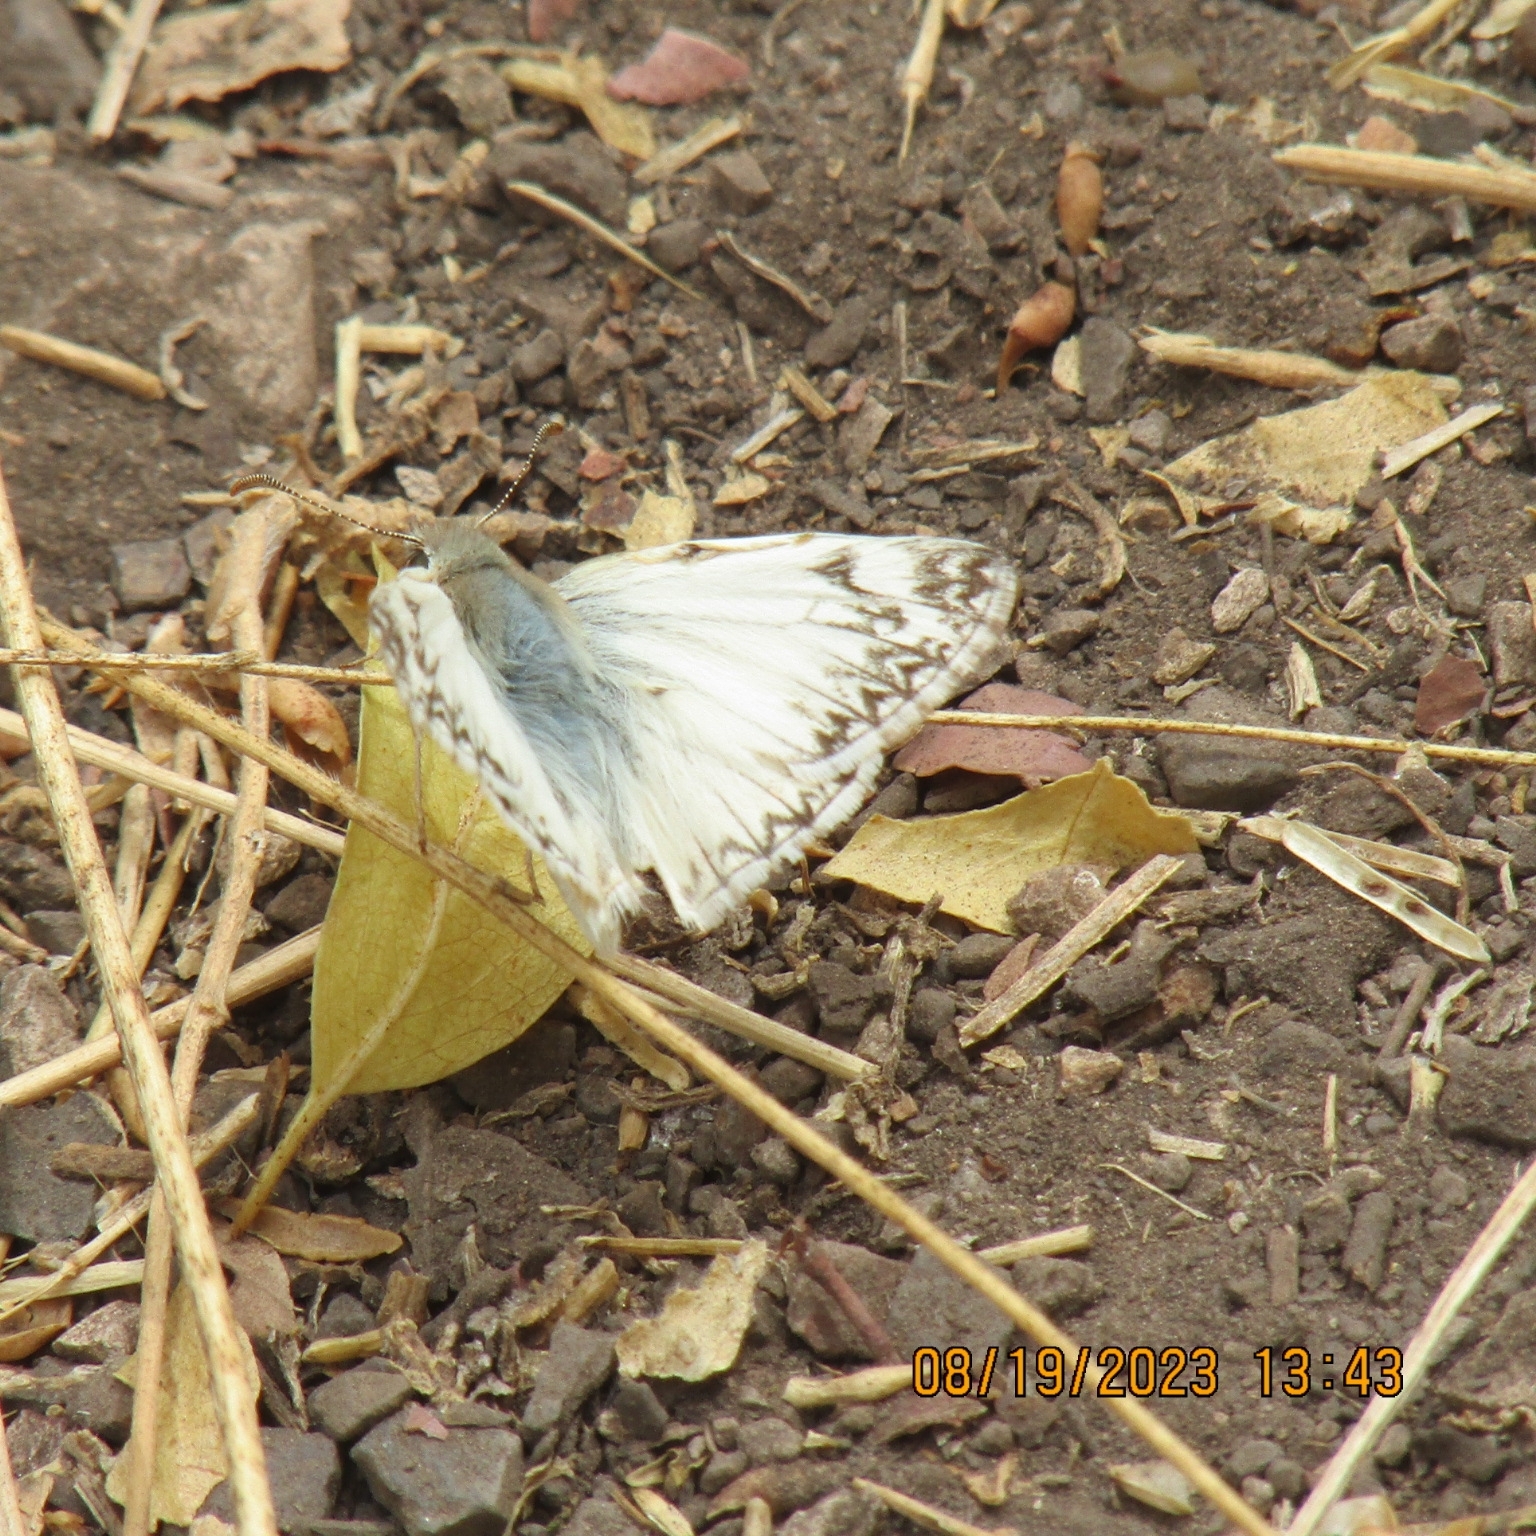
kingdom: Animalia
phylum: Arthropoda
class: Insecta
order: Lepidoptera
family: Hesperiidae
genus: Heliopetes
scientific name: Heliopetes ericetorum
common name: Northern white-skipper
